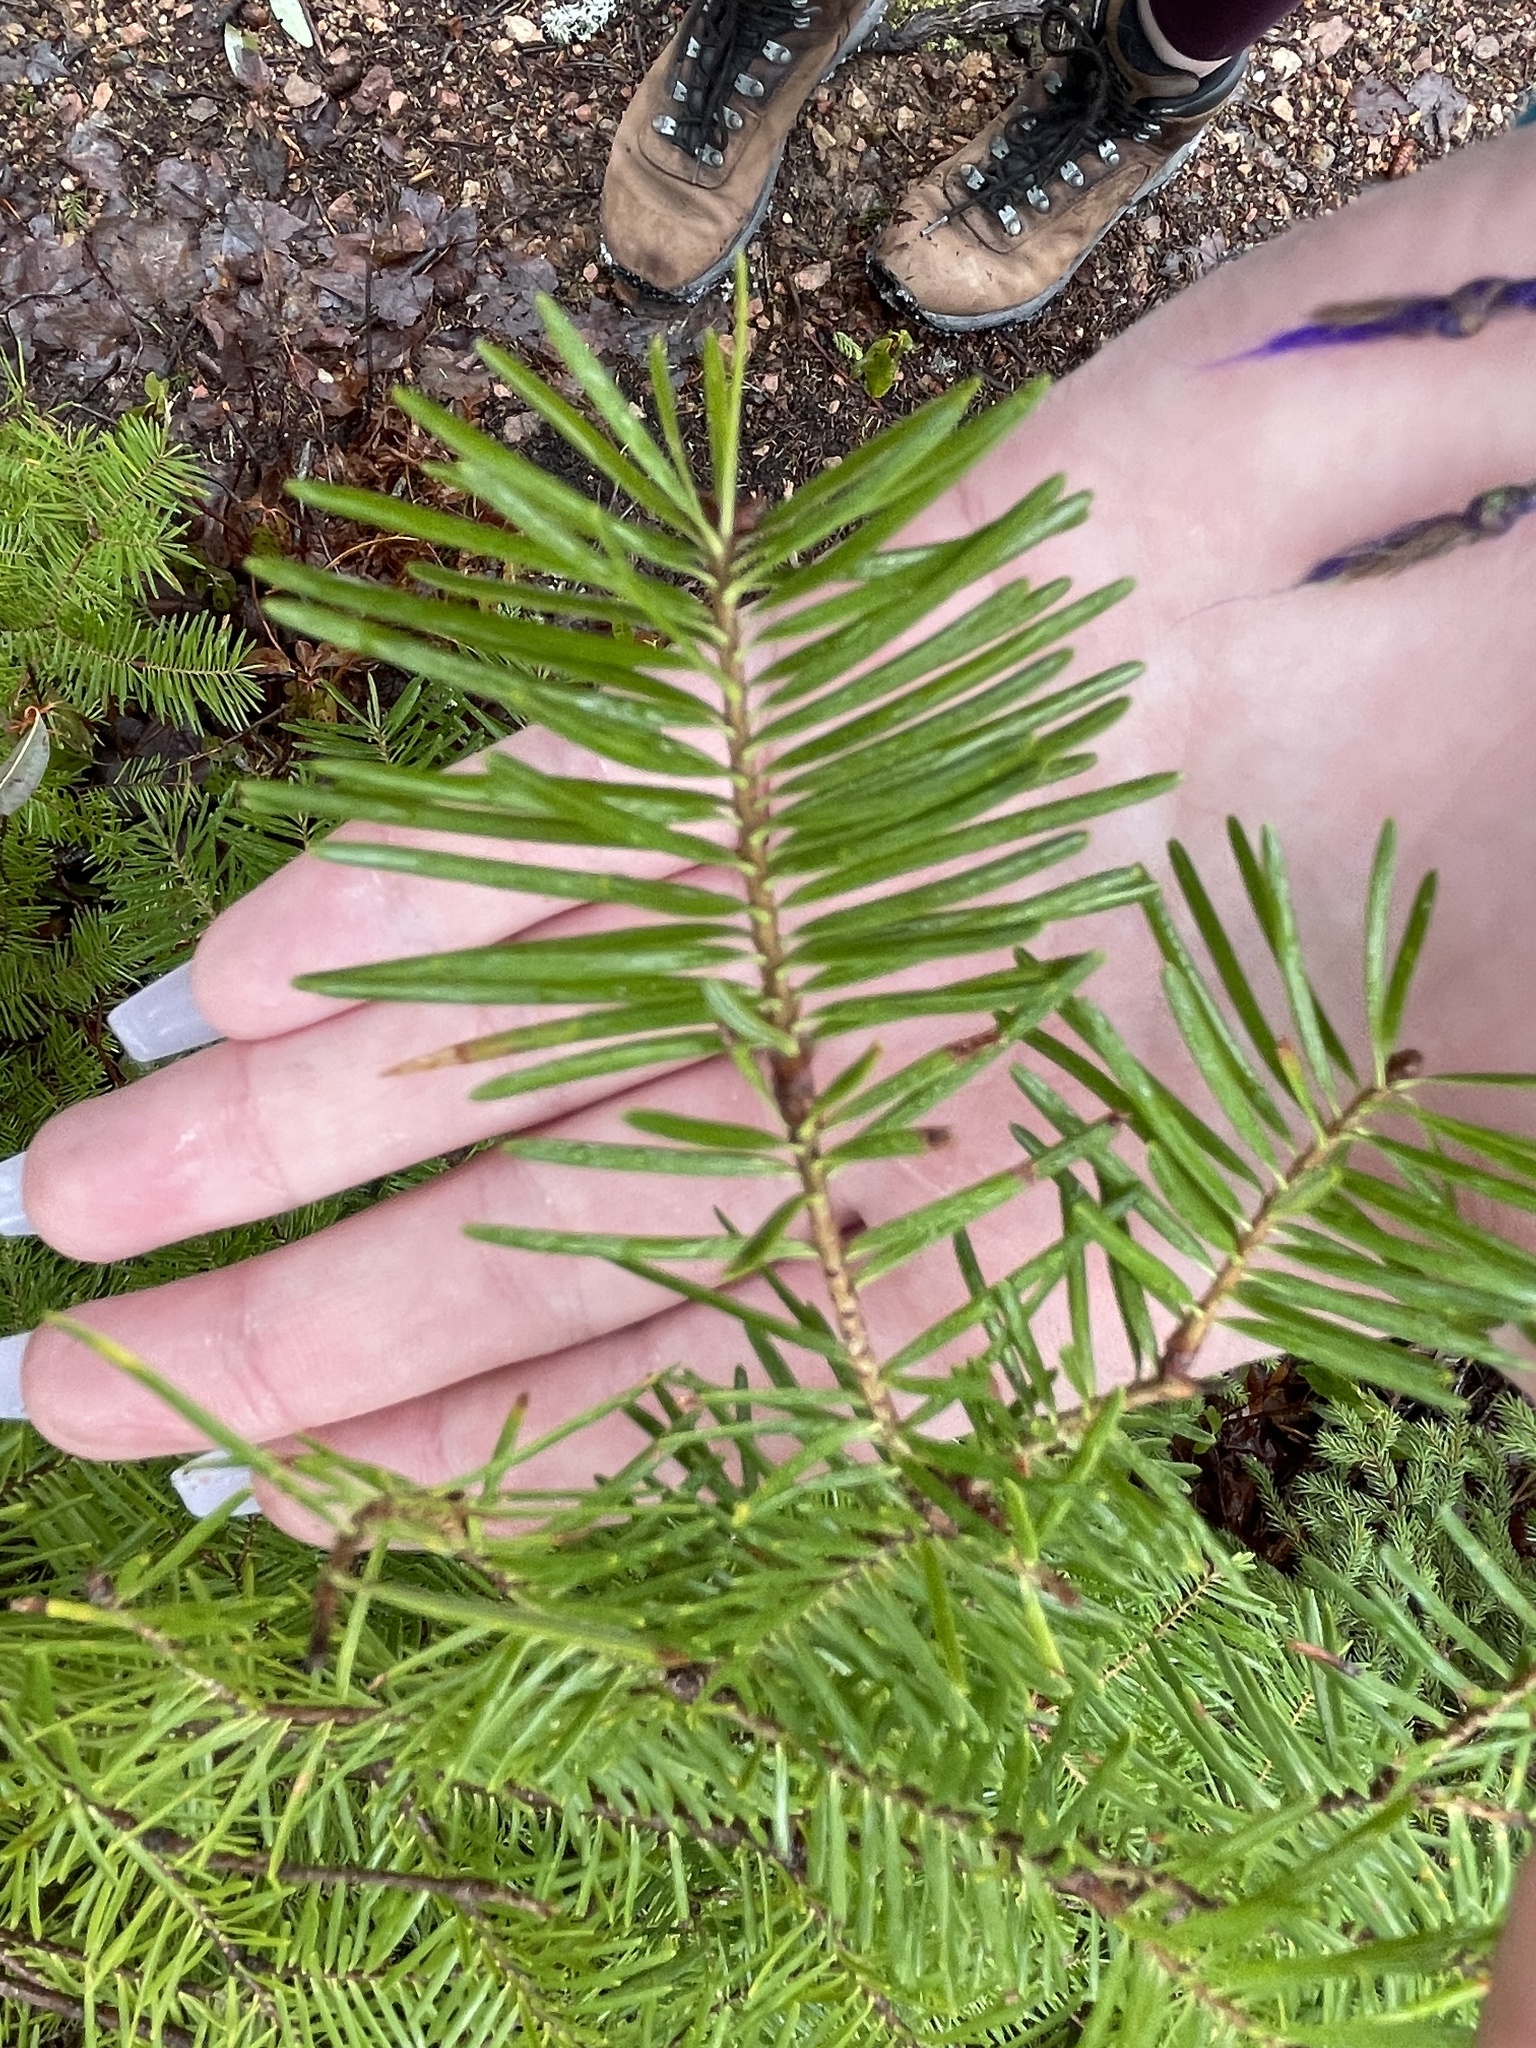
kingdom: Plantae
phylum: Tracheophyta
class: Pinopsida
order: Pinales
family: Pinaceae
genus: Abies
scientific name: Abies balsamea
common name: Balsam fir
